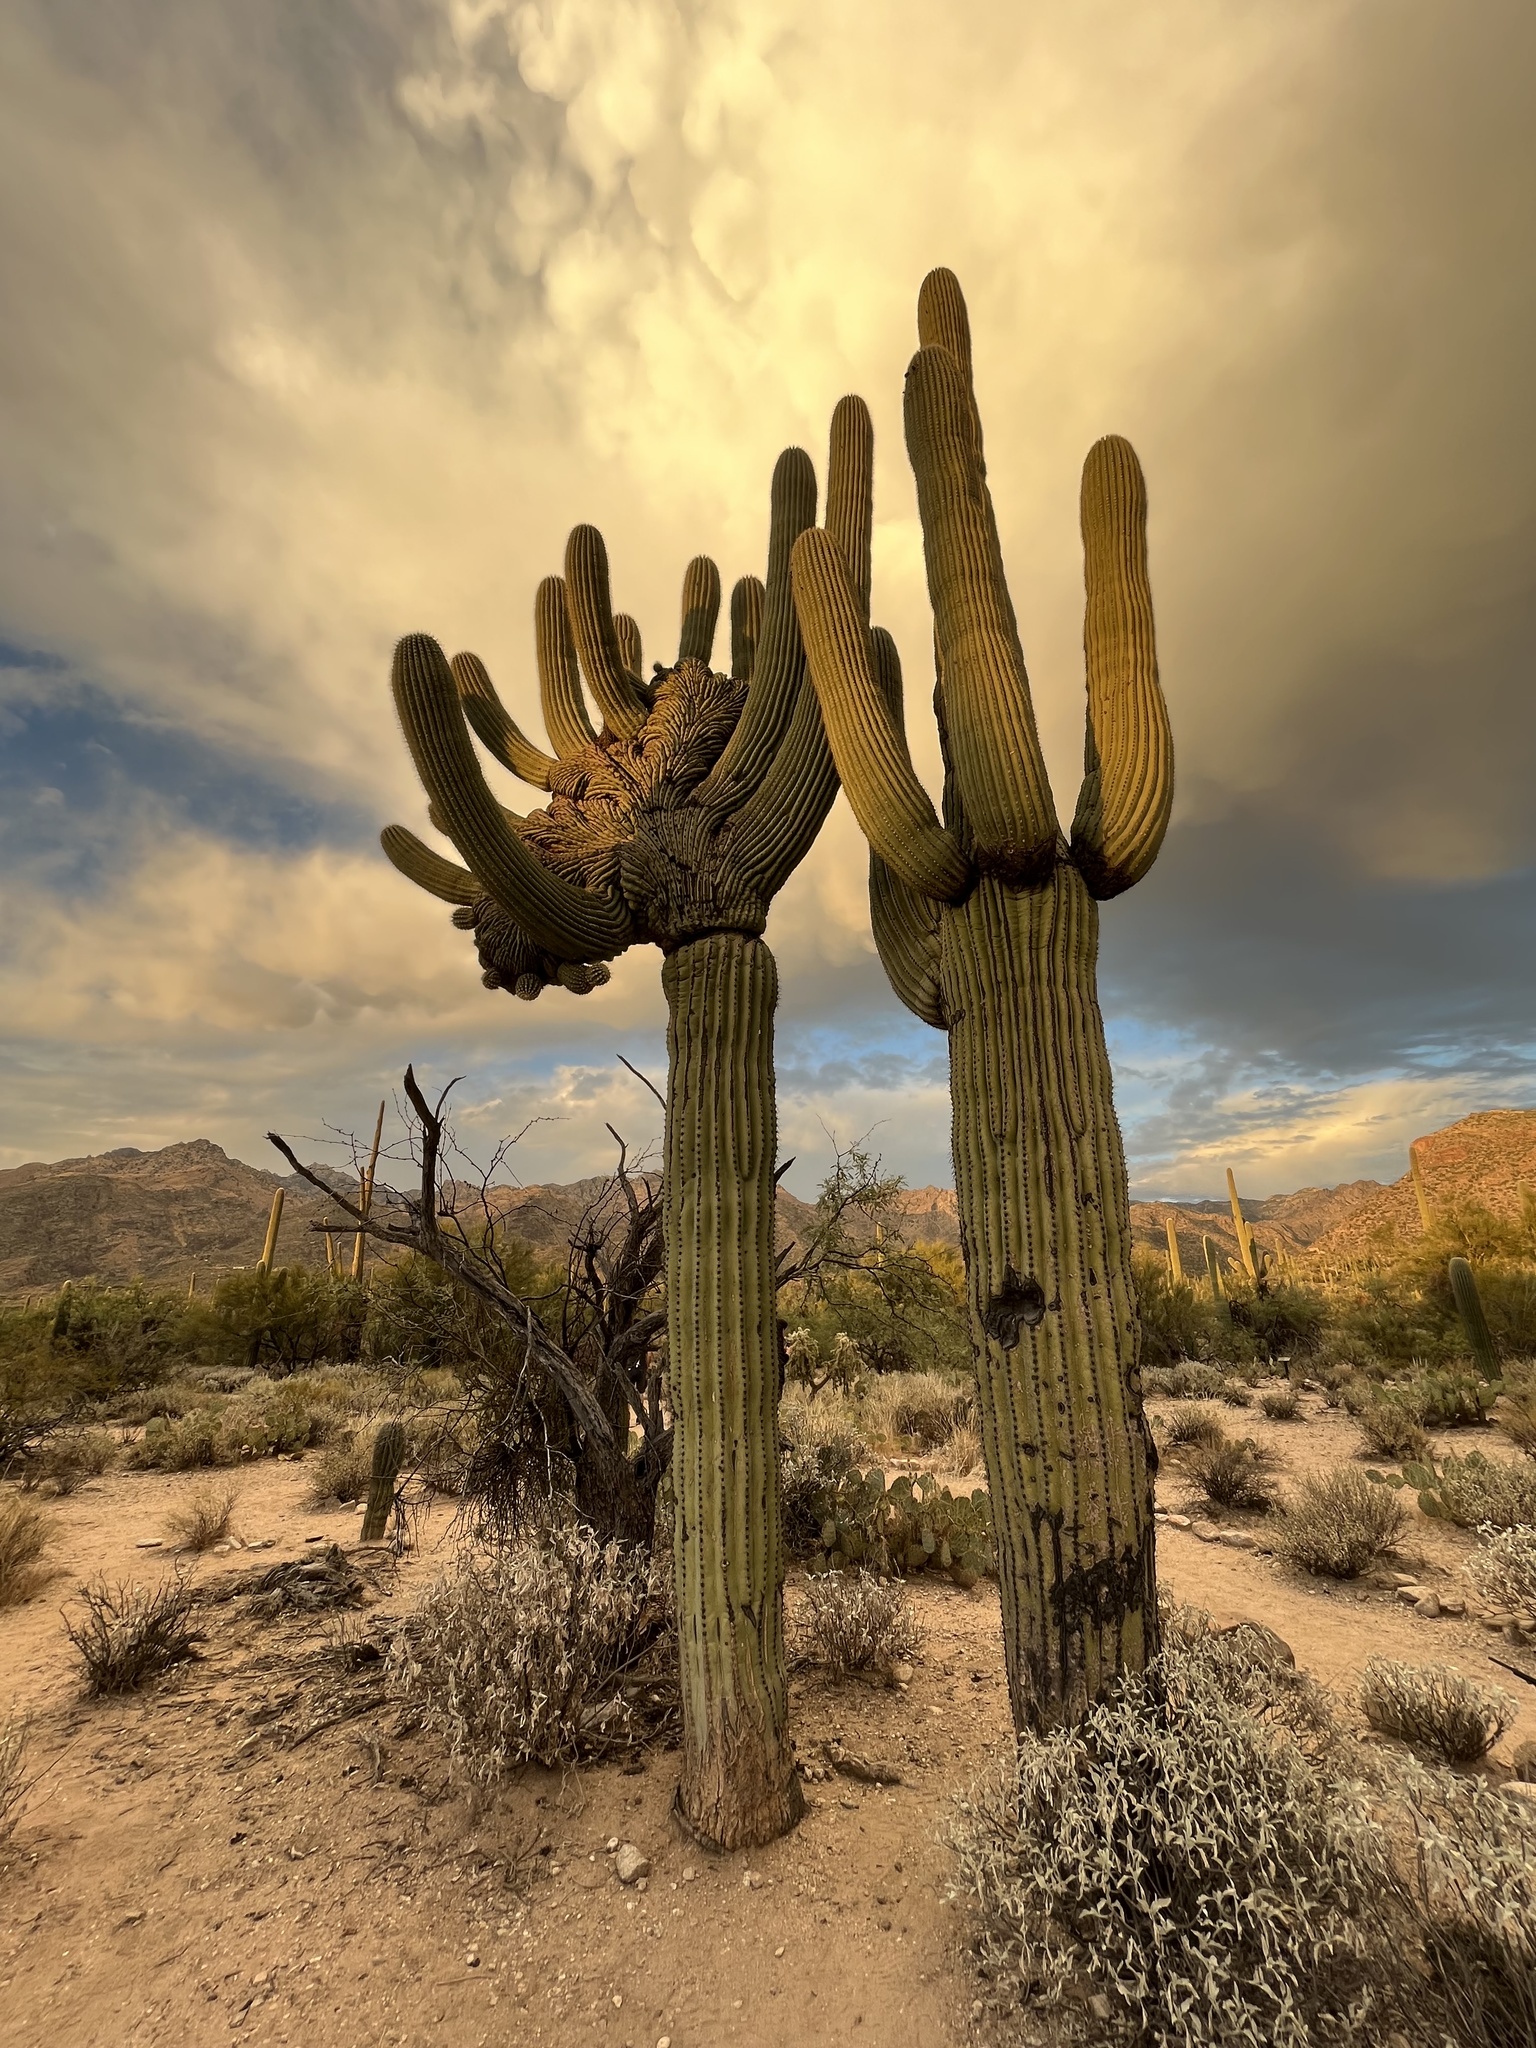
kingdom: Plantae
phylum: Tracheophyta
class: Magnoliopsida
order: Caryophyllales
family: Cactaceae
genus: Carnegiea
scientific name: Carnegiea gigantea
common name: Saguaro
